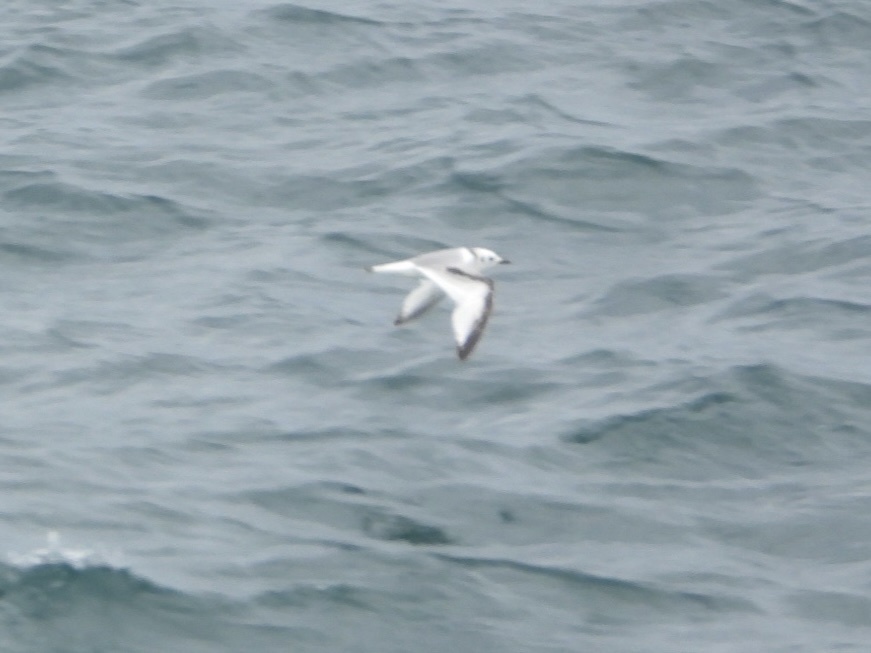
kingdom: Animalia
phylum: Chordata
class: Aves
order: Charadriiformes
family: Laridae
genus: Rissa
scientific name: Rissa tridactyla
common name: Black-legged kittiwake
